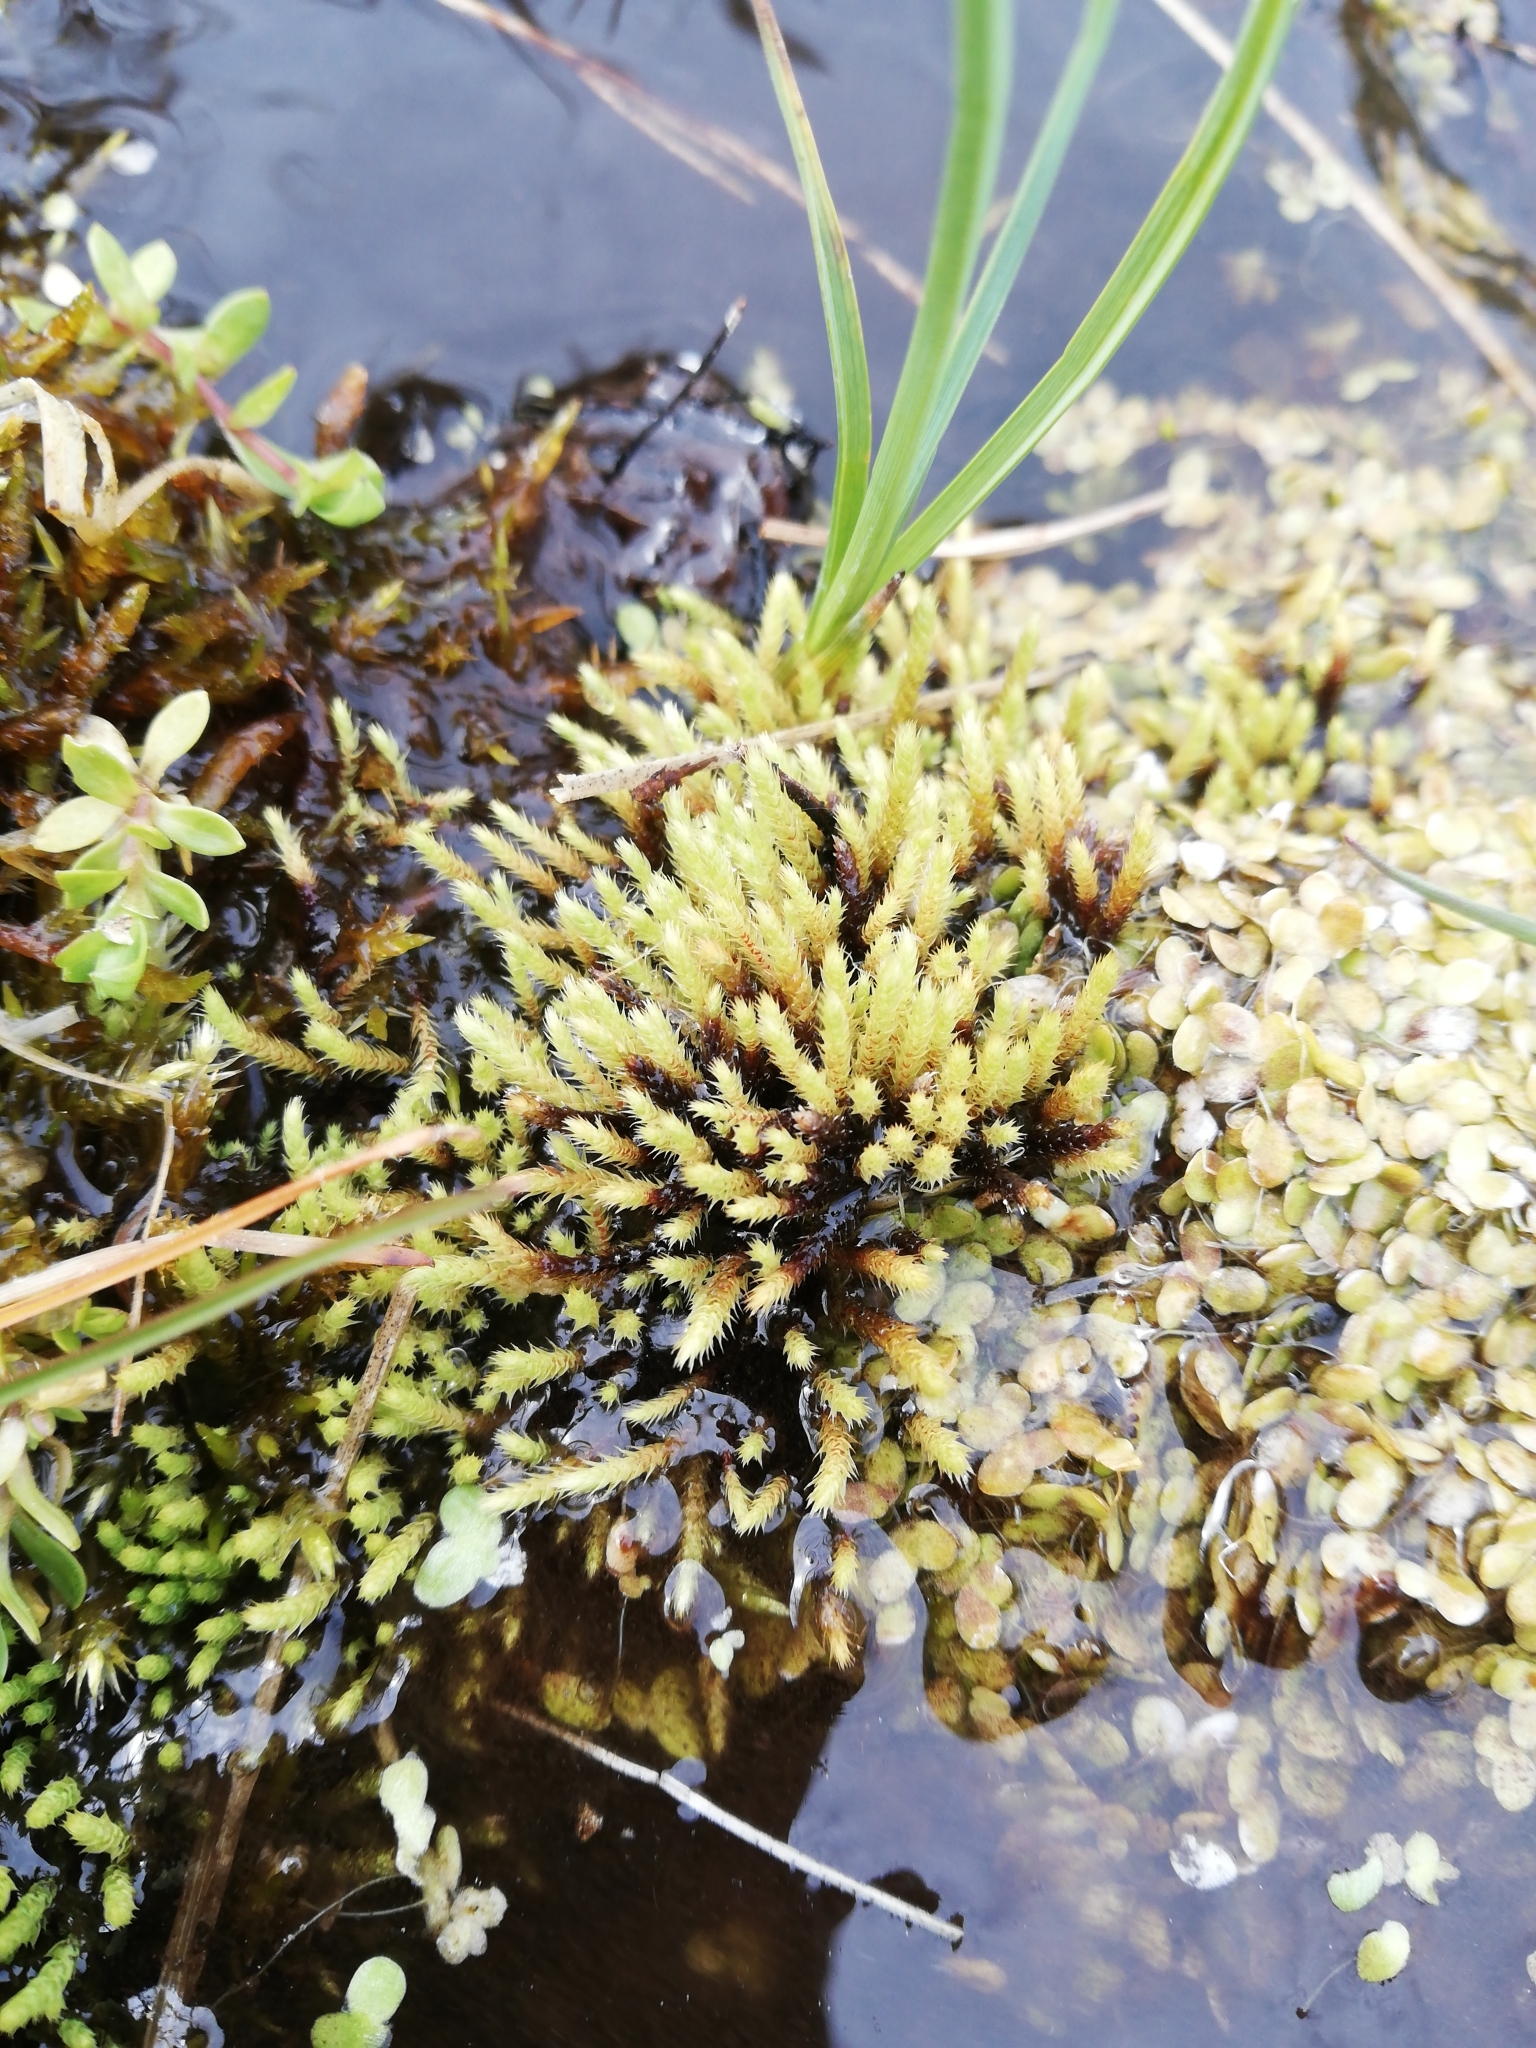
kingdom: Plantae
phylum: Bryophyta
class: Bryopsida
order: Bartramiales
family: Bartramiaceae
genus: Philonotis
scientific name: Philonotis fontana
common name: Fountain apple-moss
